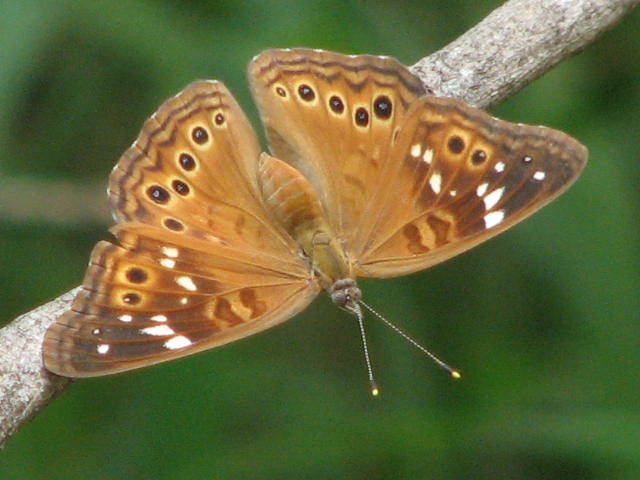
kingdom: Animalia
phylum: Arthropoda
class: Insecta
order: Lepidoptera
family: Nymphalidae
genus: Asterocampa
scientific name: Asterocampa leilia
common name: Empress leilia
